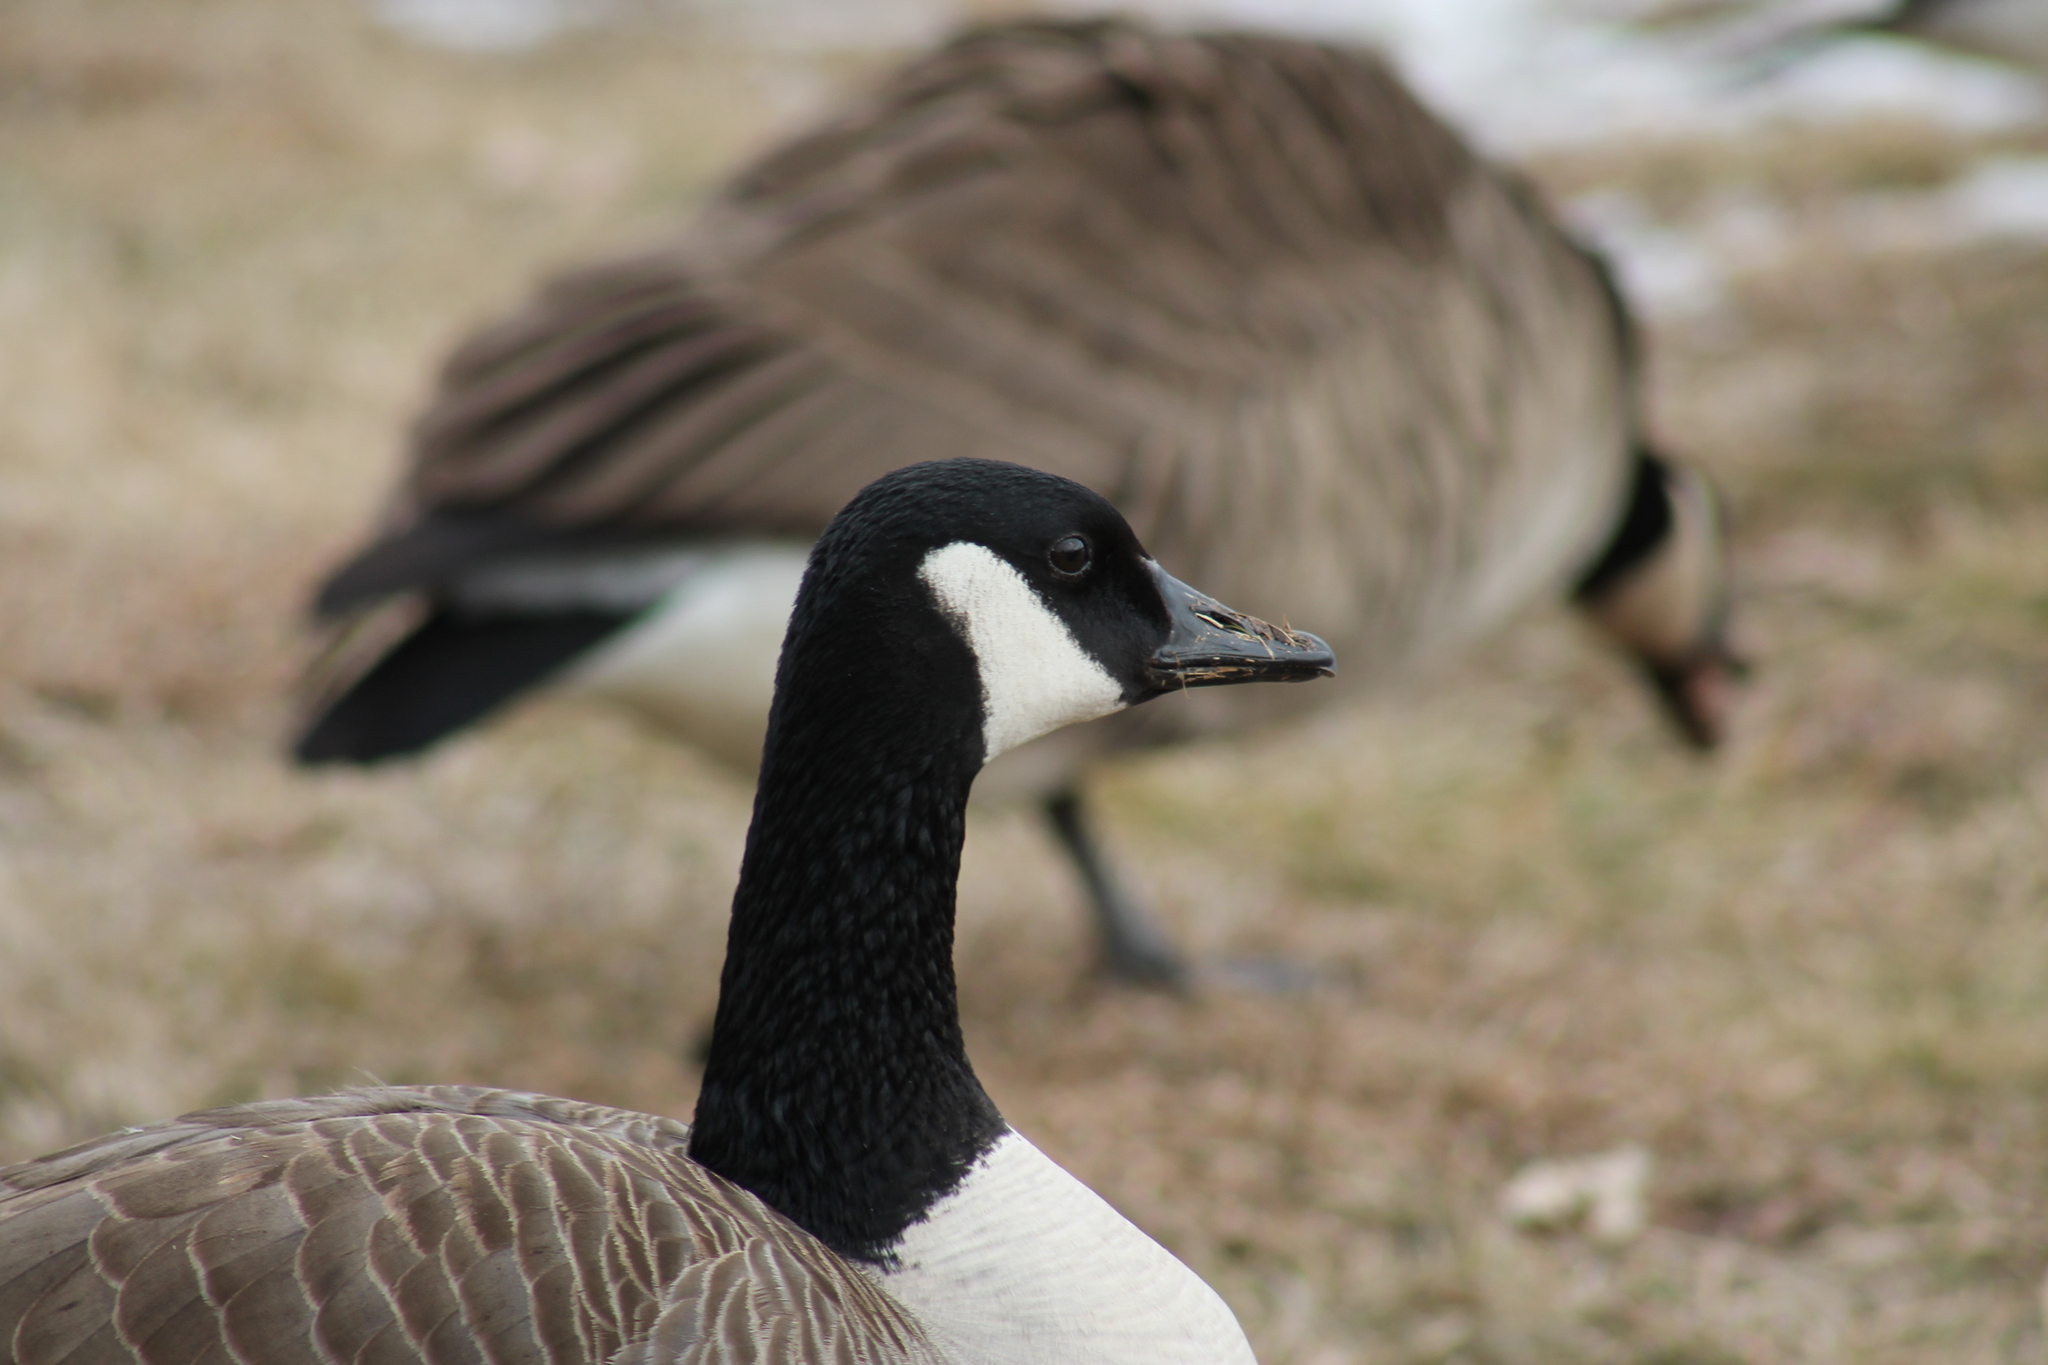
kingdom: Animalia
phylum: Chordata
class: Aves
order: Anseriformes
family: Anatidae
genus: Branta
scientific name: Branta canadensis
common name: Canada goose
